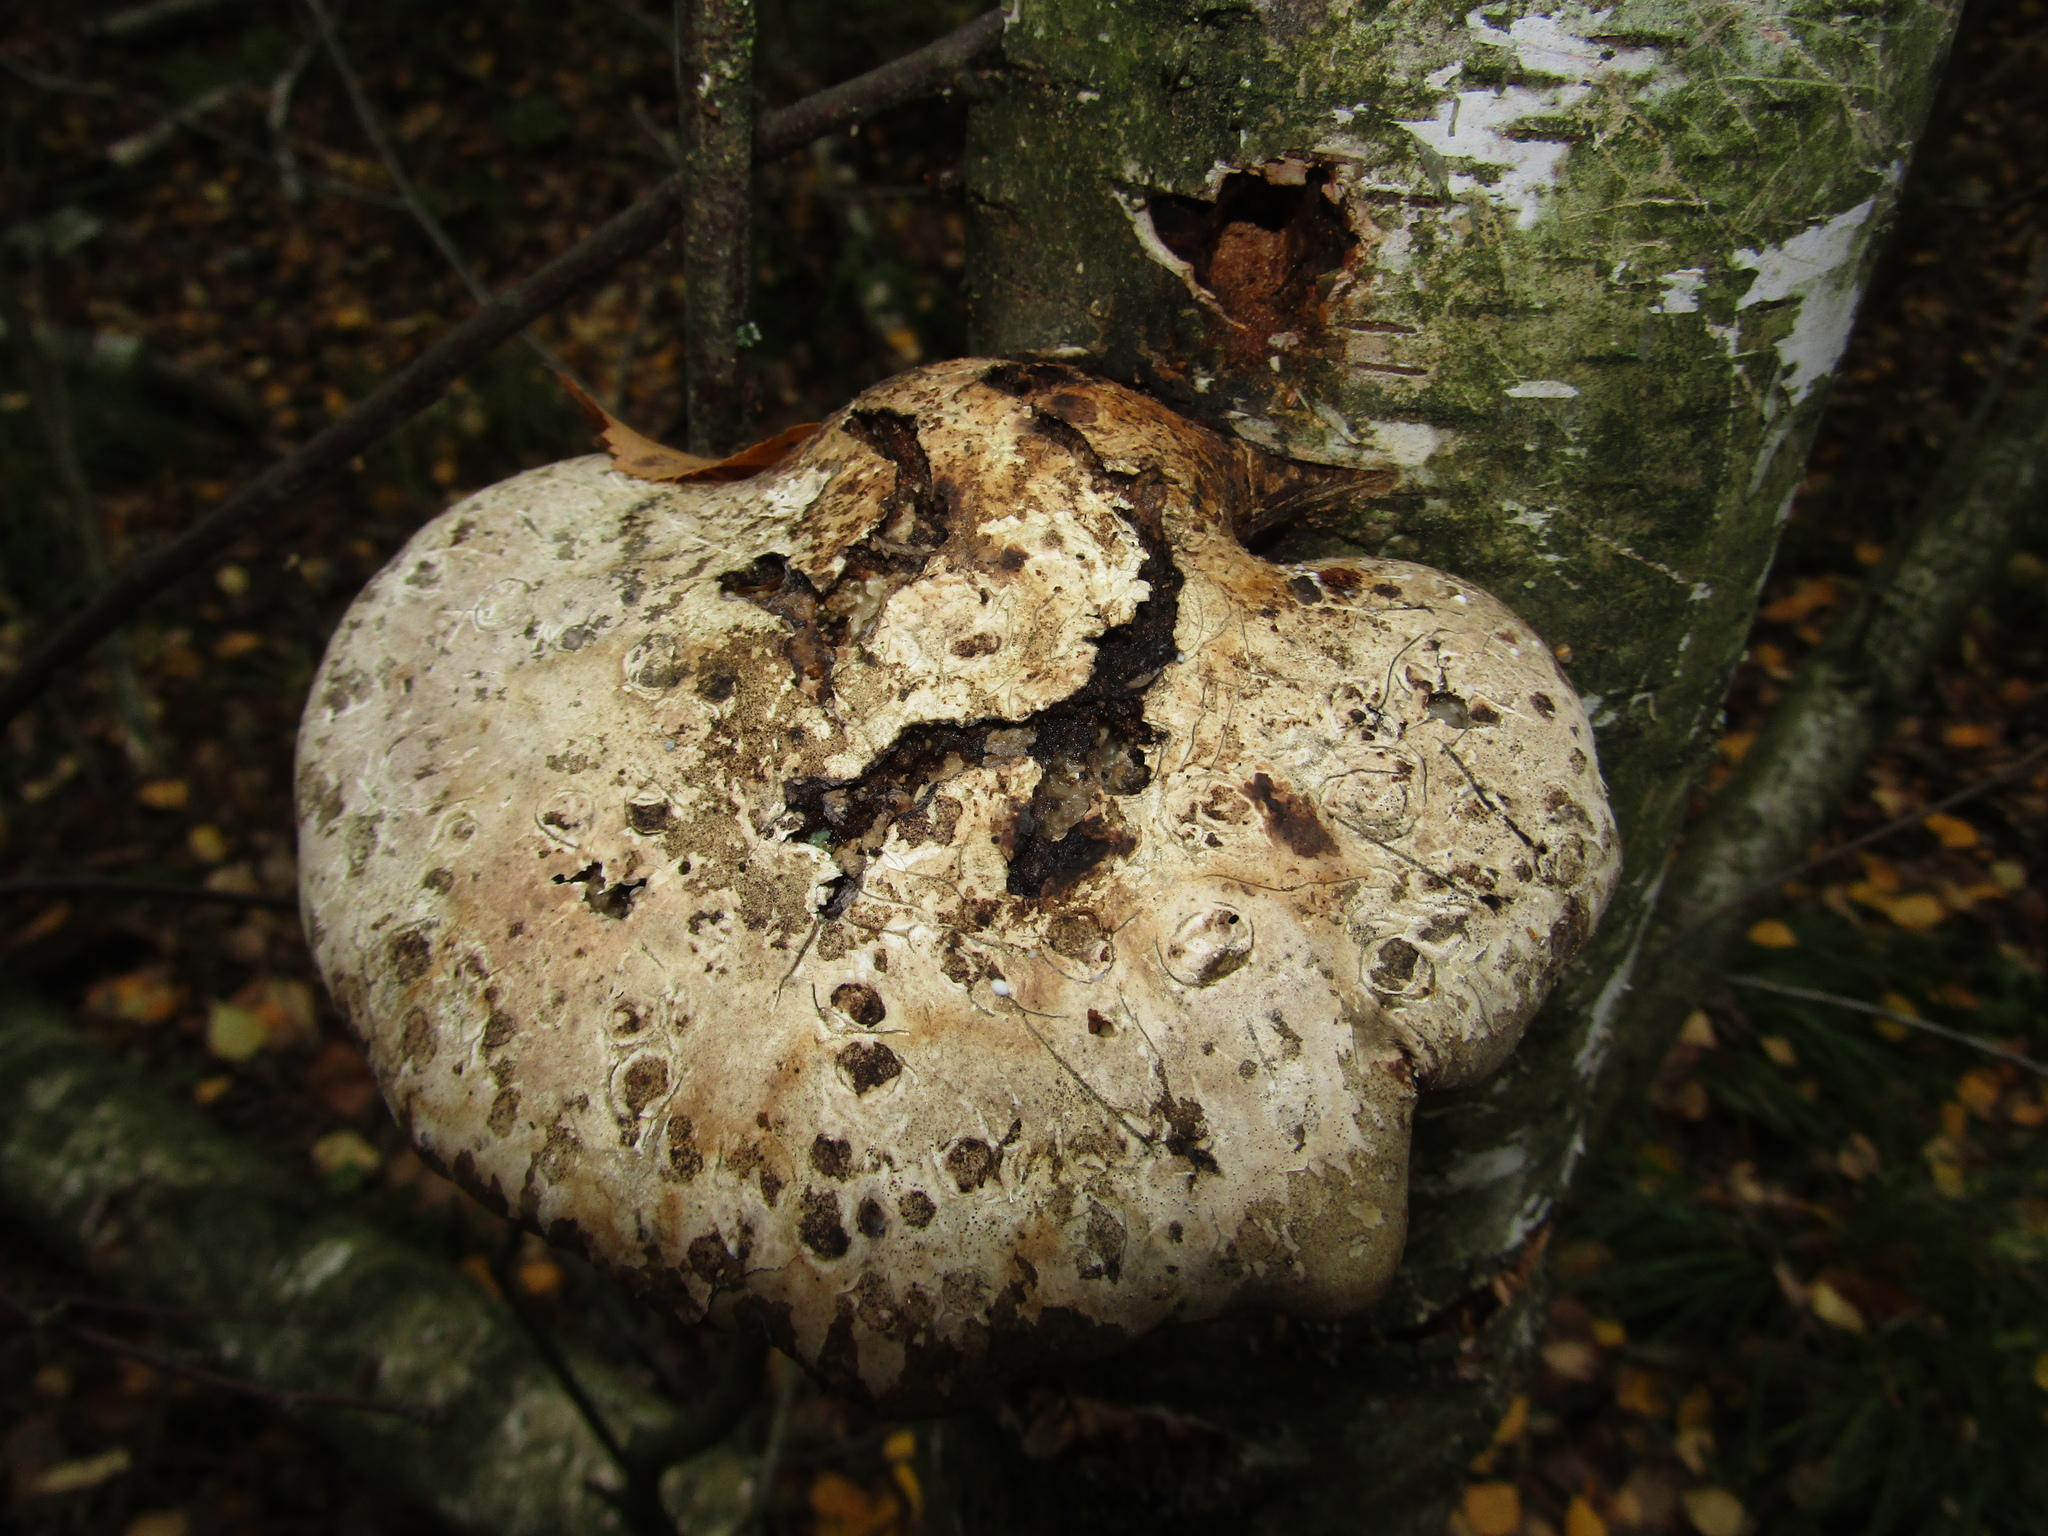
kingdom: Fungi
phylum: Basidiomycota
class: Agaricomycetes
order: Polyporales
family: Fomitopsidaceae
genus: Fomitopsis
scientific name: Fomitopsis betulina
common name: Birch polypore
